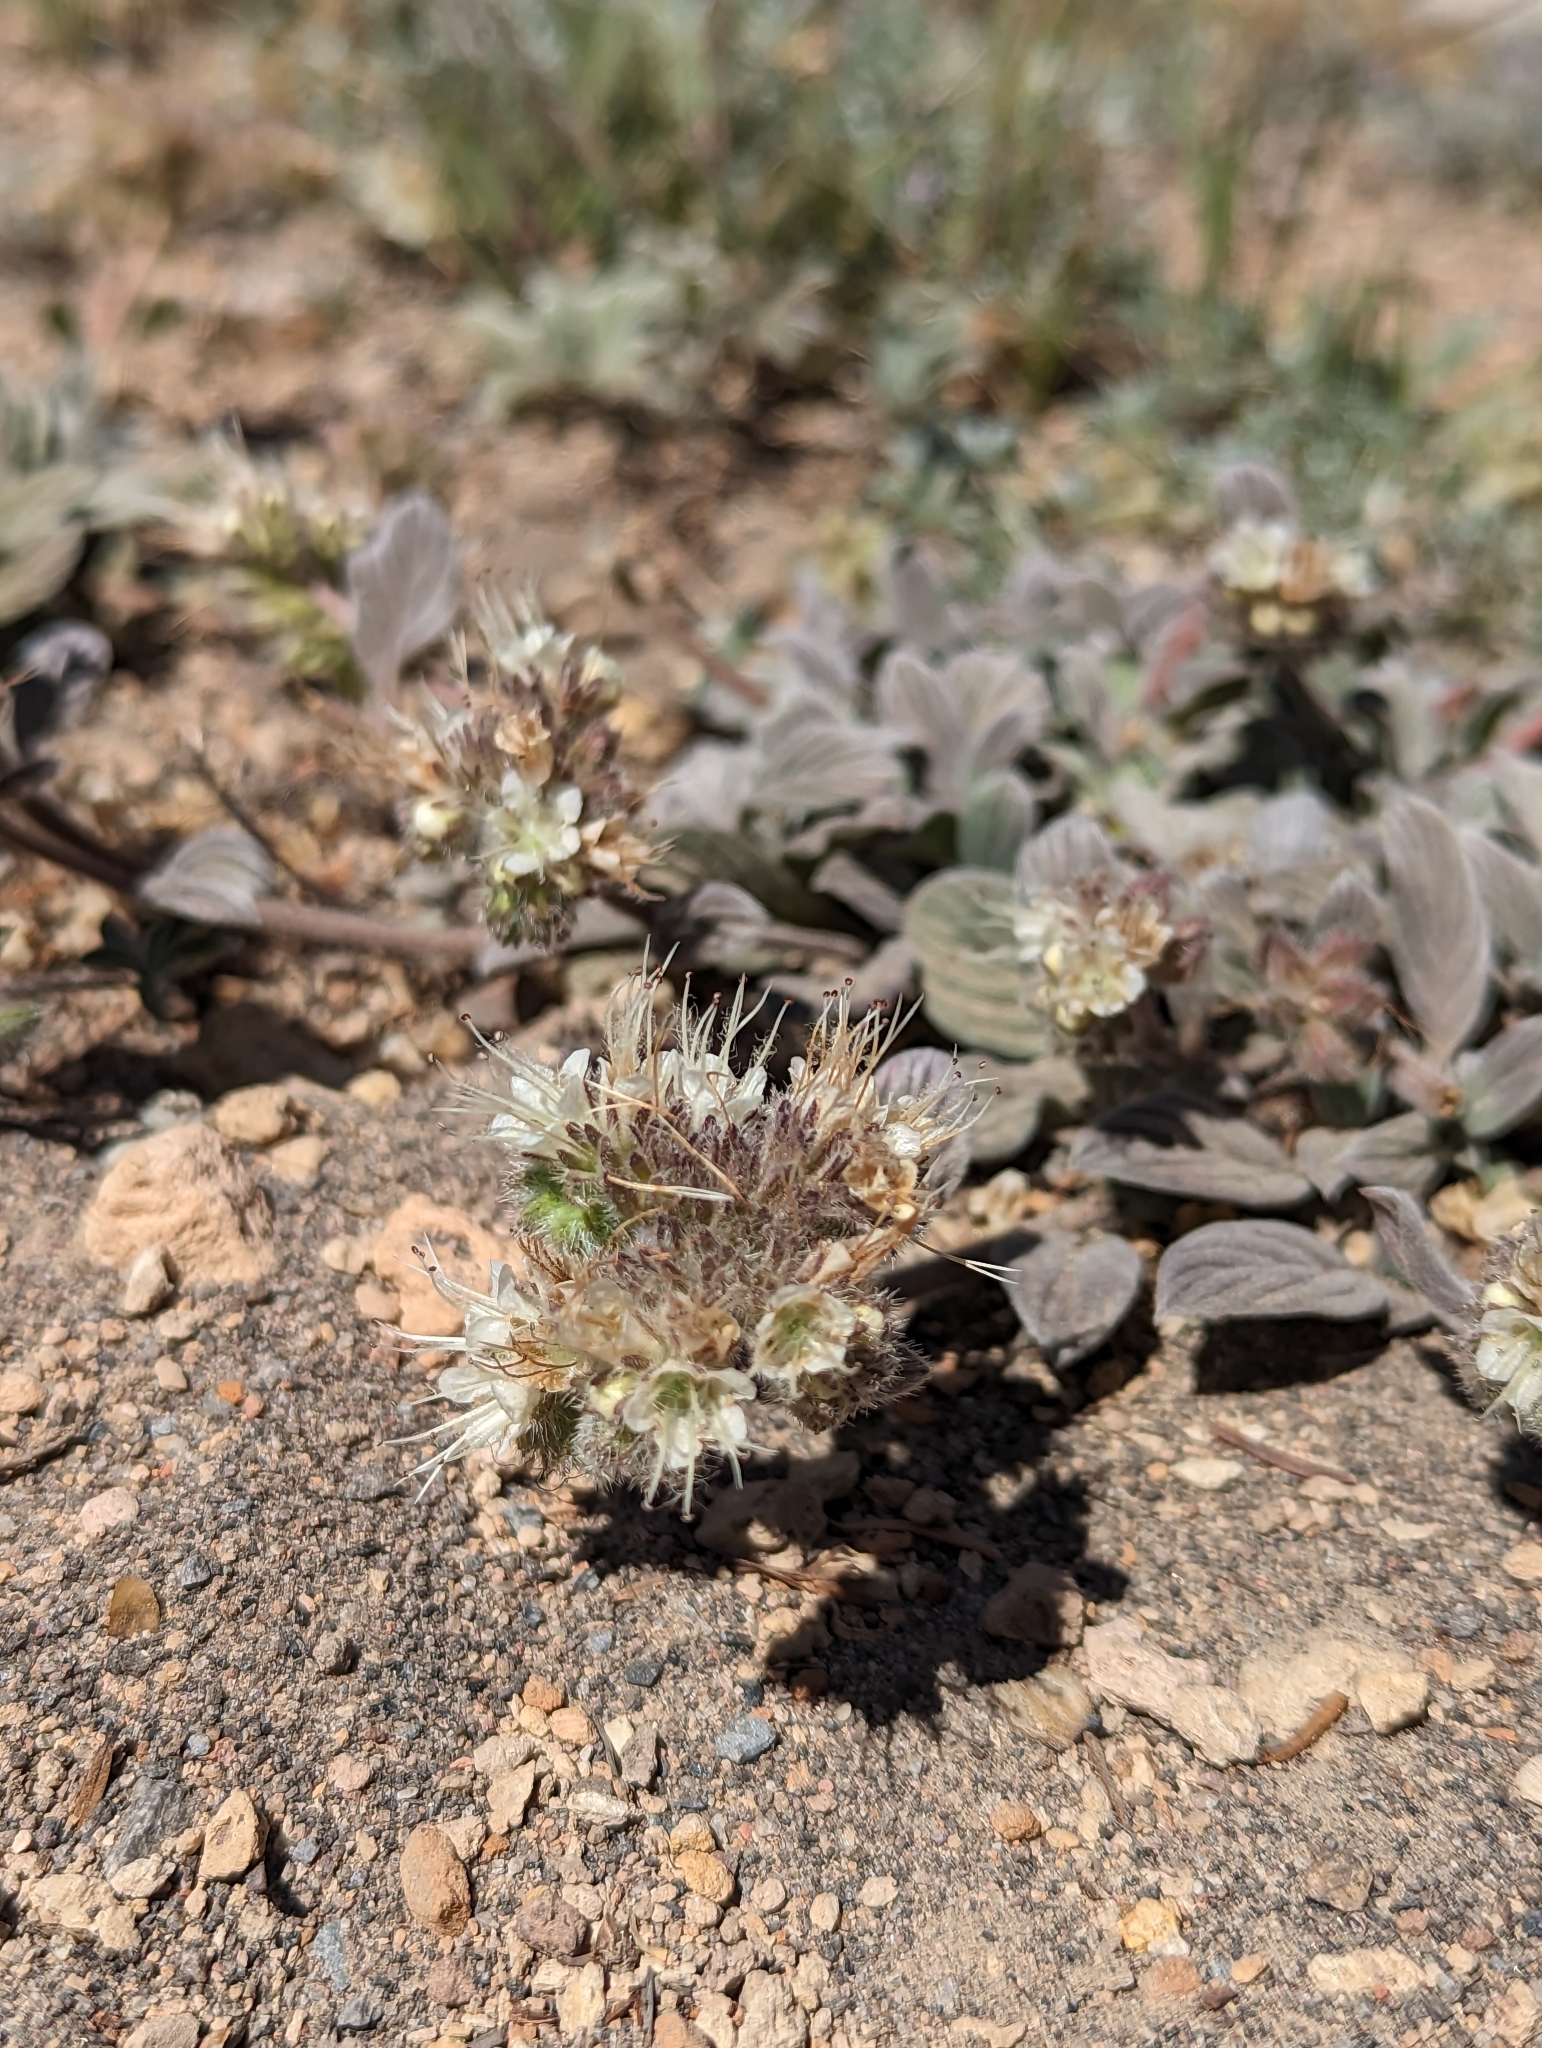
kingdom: Plantae
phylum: Tracheophyta
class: Magnoliopsida
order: Boraginales
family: Hydrophyllaceae
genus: Phacelia
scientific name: Phacelia hastata
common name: Silver-leaved phacelia
